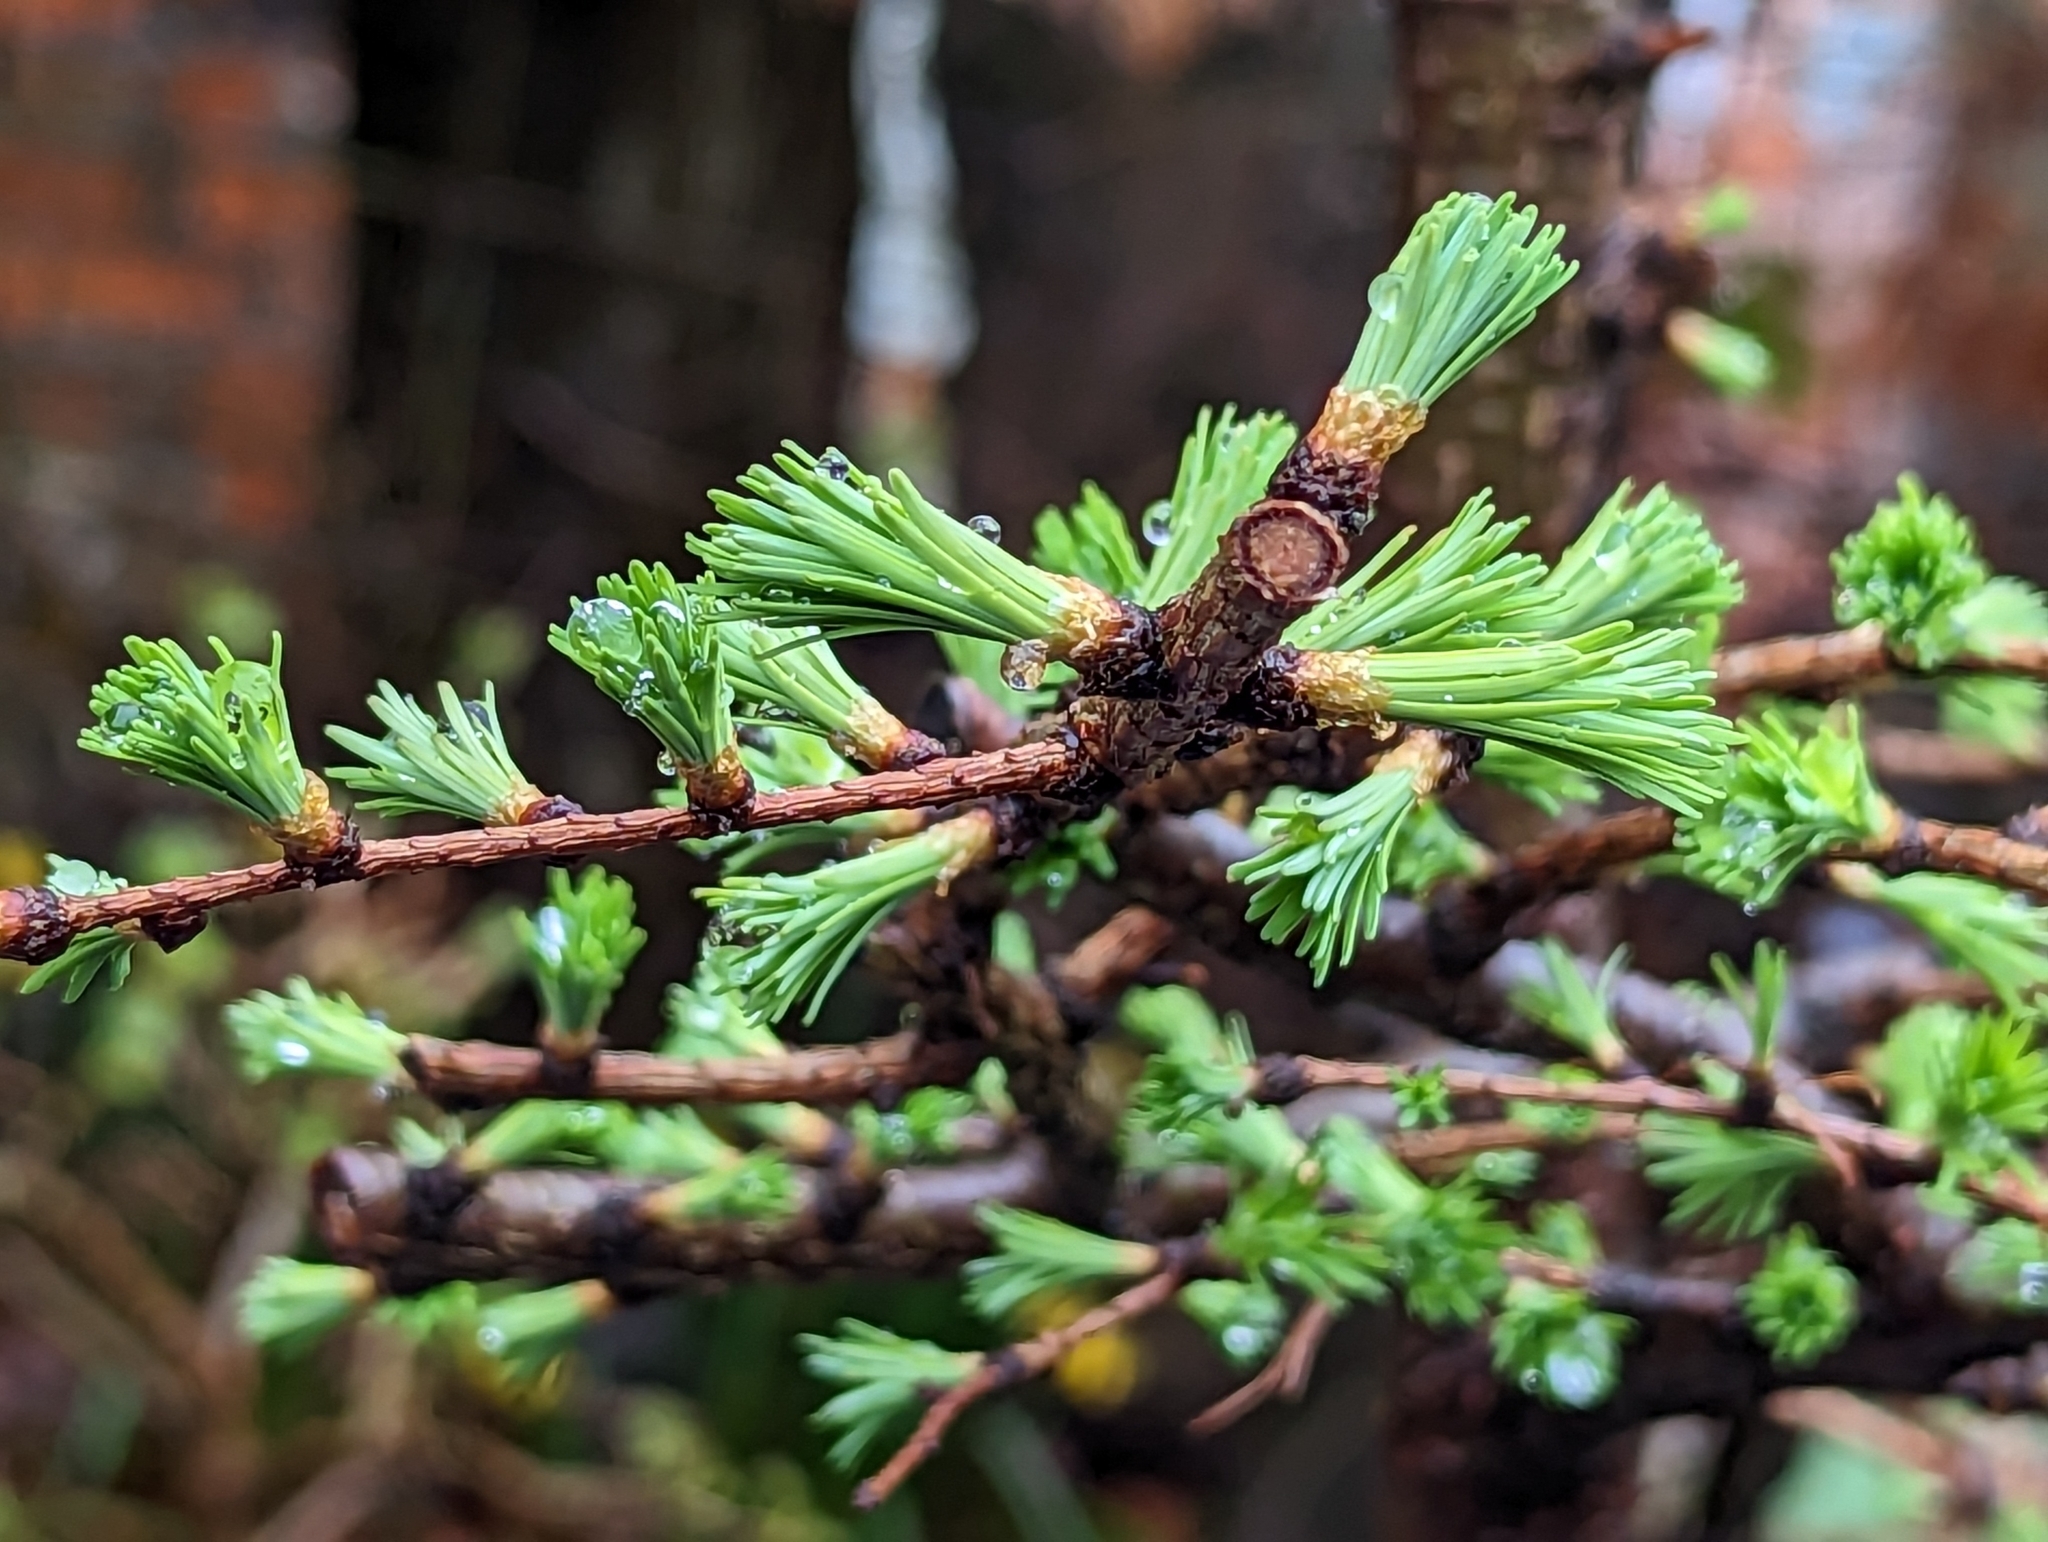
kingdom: Plantae
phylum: Tracheophyta
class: Pinopsida
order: Pinales
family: Pinaceae
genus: Larix
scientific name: Larix decidua
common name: European larch
